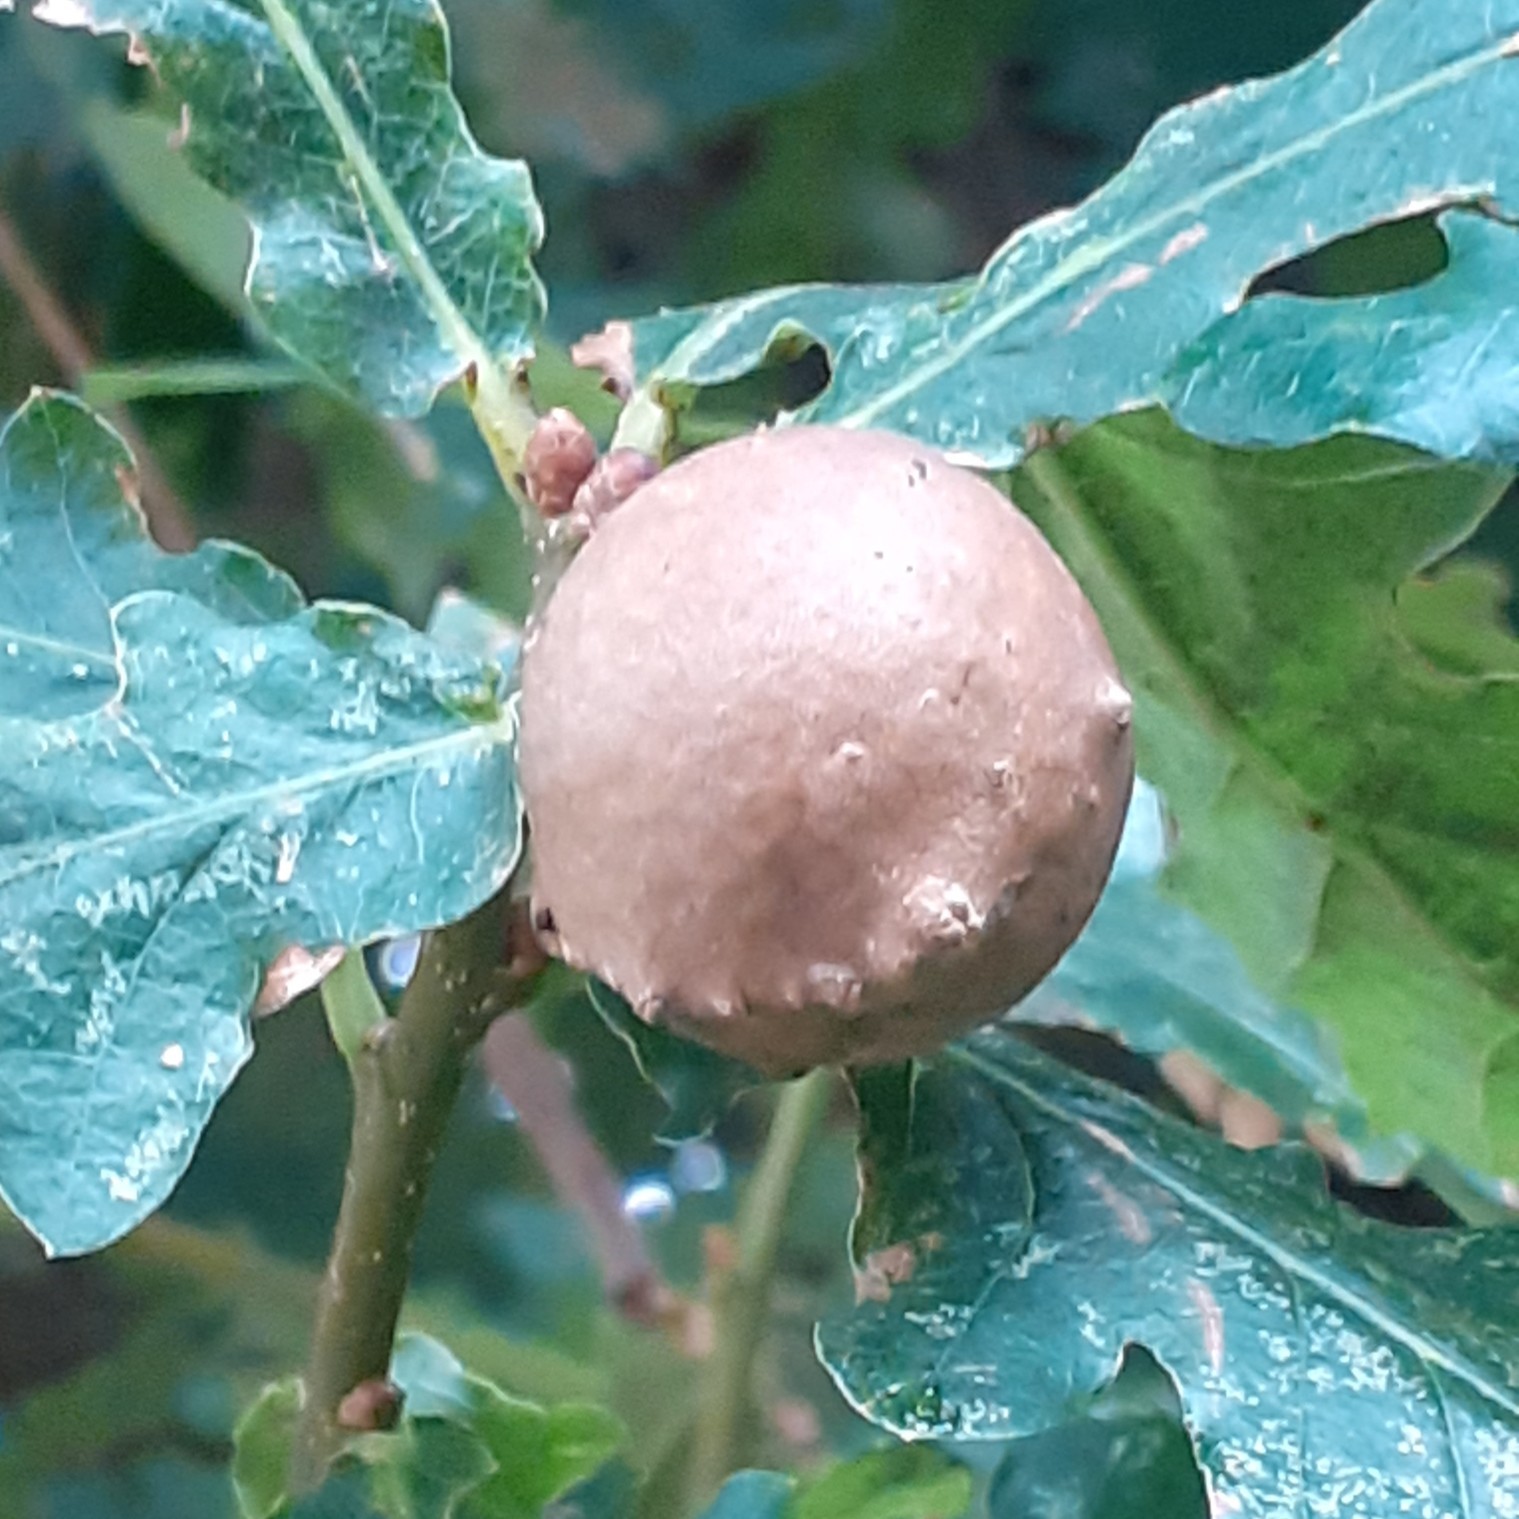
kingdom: Animalia
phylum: Arthropoda
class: Insecta
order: Hymenoptera
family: Cynipidae
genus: Andricus
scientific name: Andricus kollari
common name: Marble gall
